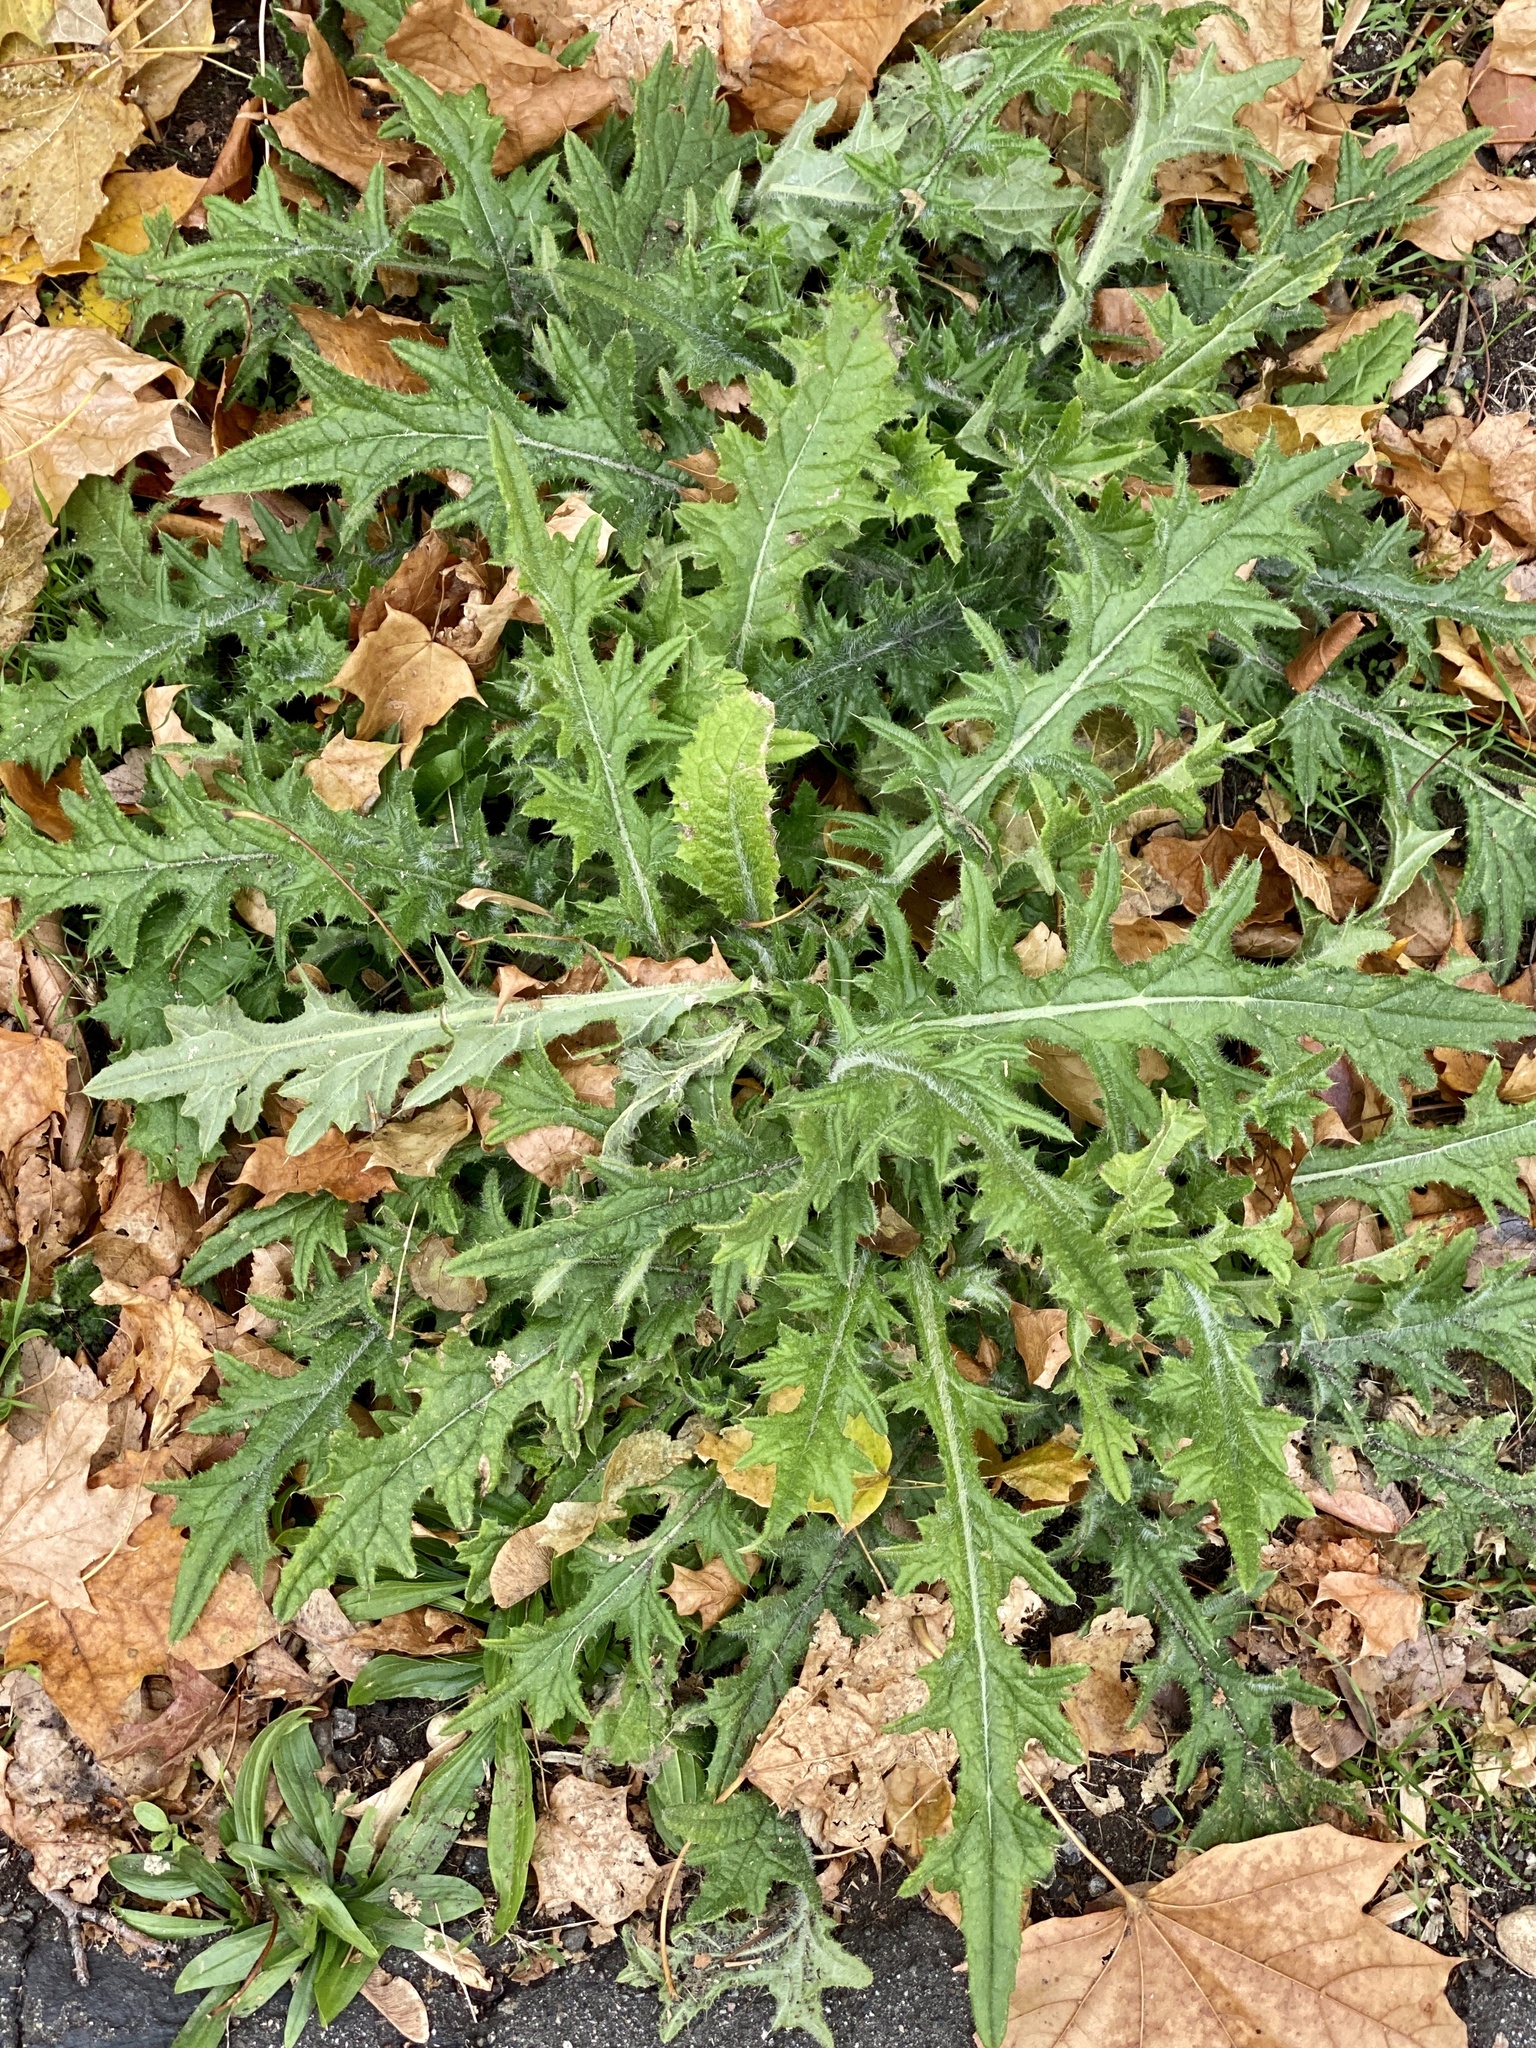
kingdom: Plantae
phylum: Tracheophyta
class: Magnoliopsida
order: Asterales
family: Asteraceae
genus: Cirsium
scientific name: Cirsium vulgare
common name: Bull thistle
